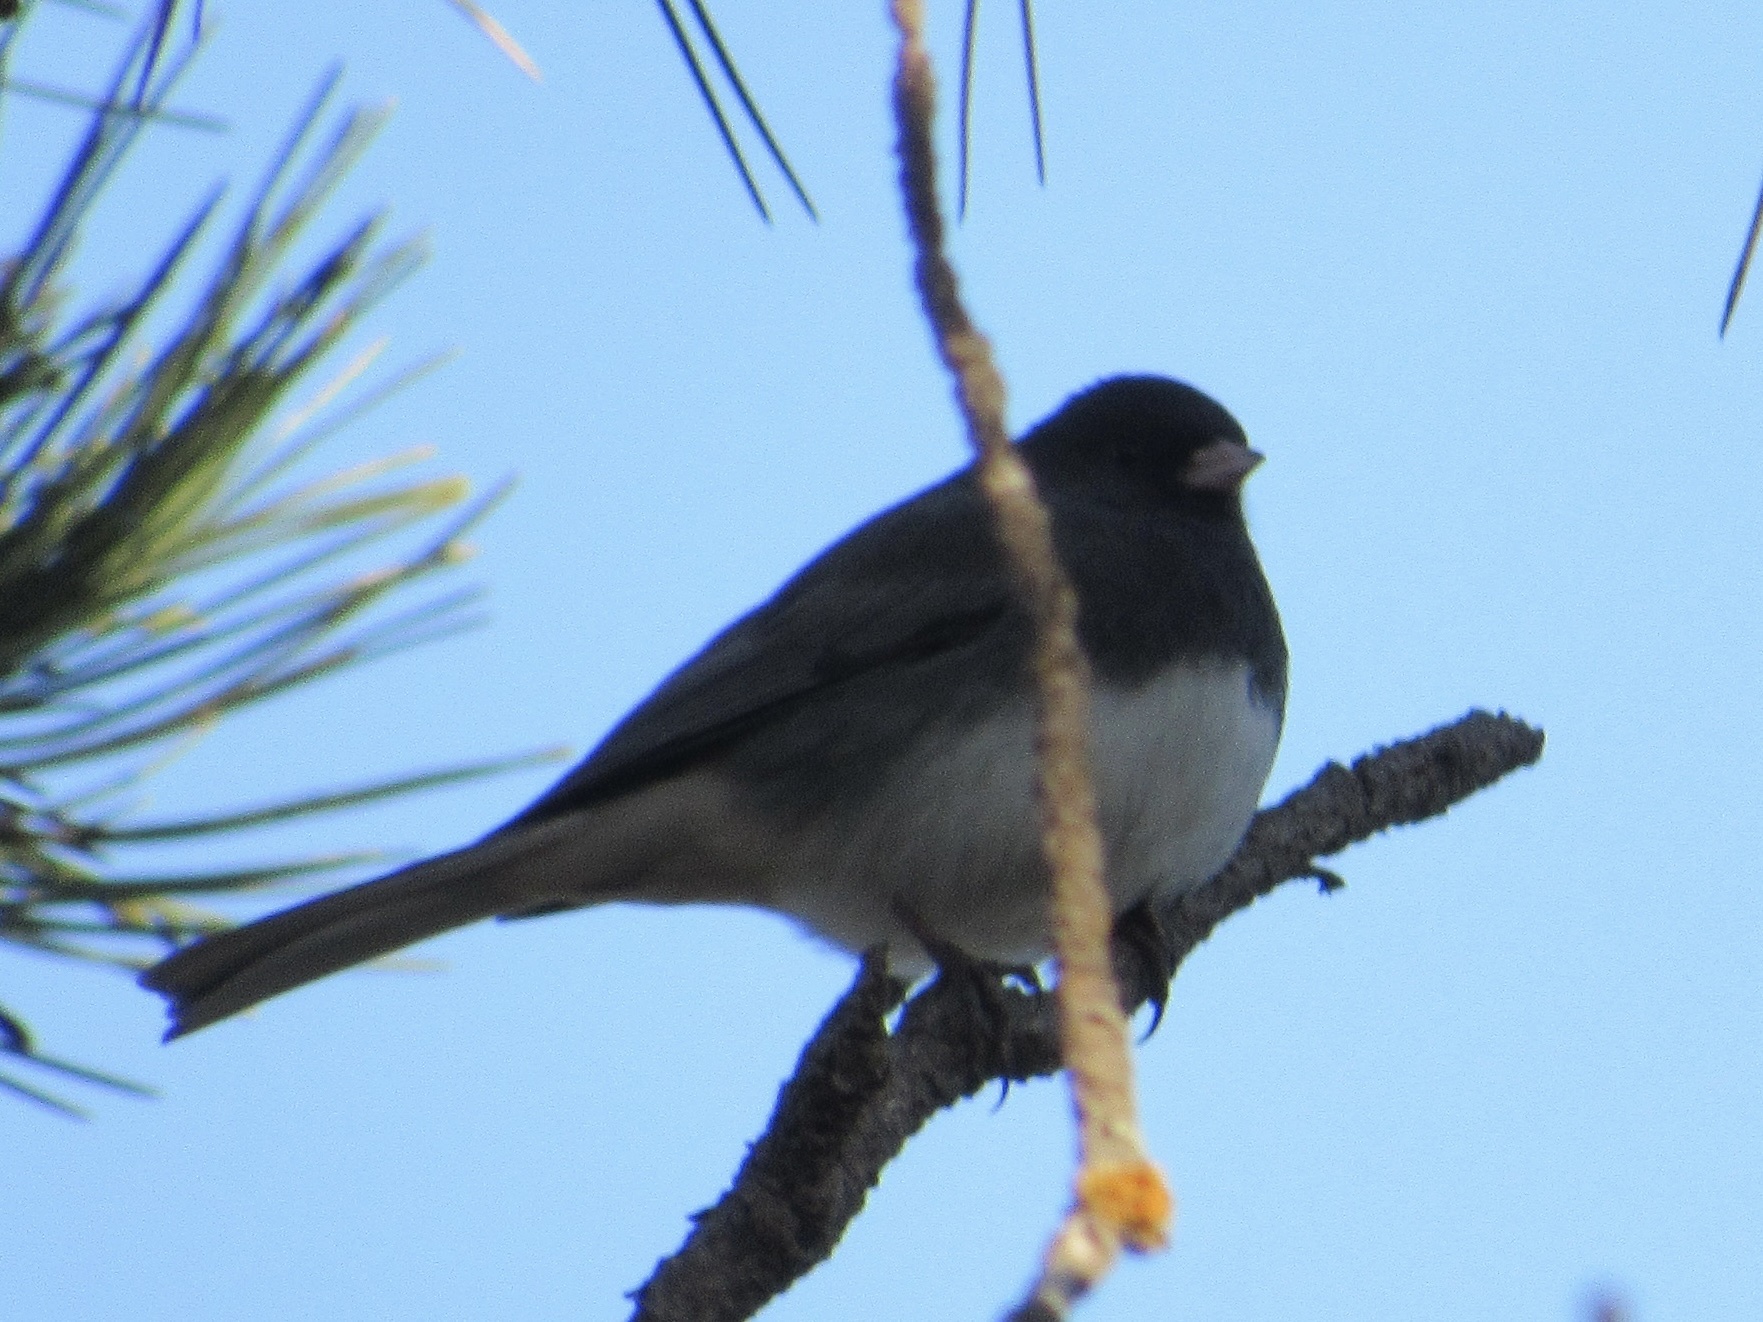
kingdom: Animalia
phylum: Chordata
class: Aves
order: Passeriformes
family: Passerellidae
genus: Junco
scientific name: Junco hyemalis
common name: Dark-eyed junco
